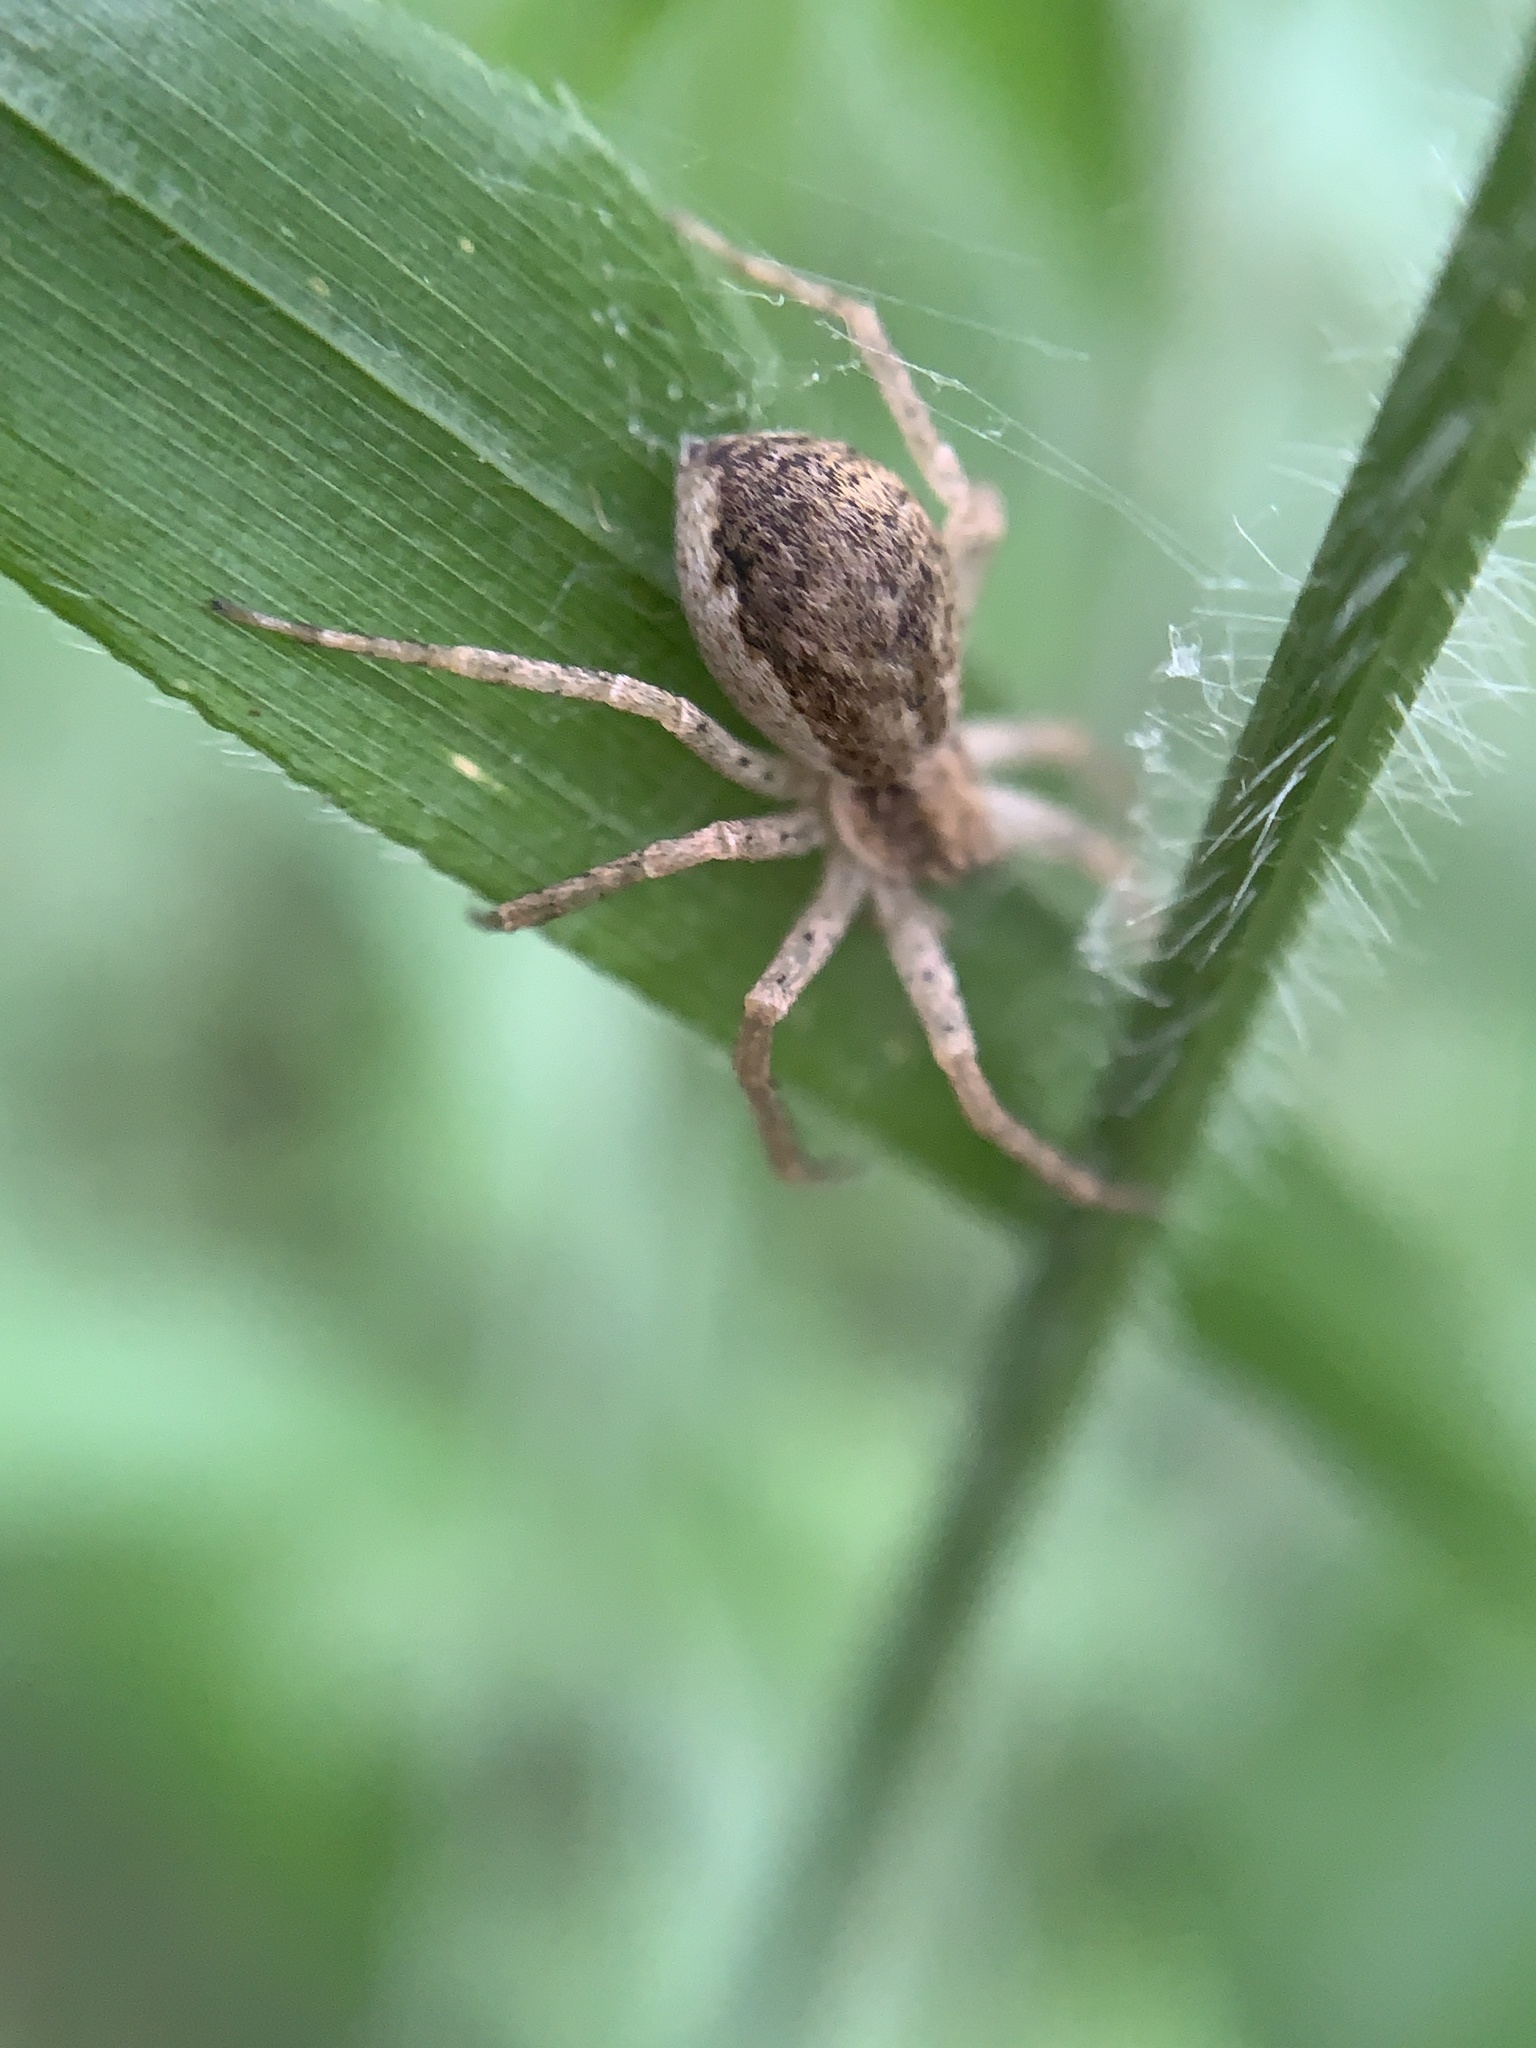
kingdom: Animalia
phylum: Arthropoda
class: Arachnida
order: Araneae
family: Philodromidae
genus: Philodromus
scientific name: Philodromus dispar
